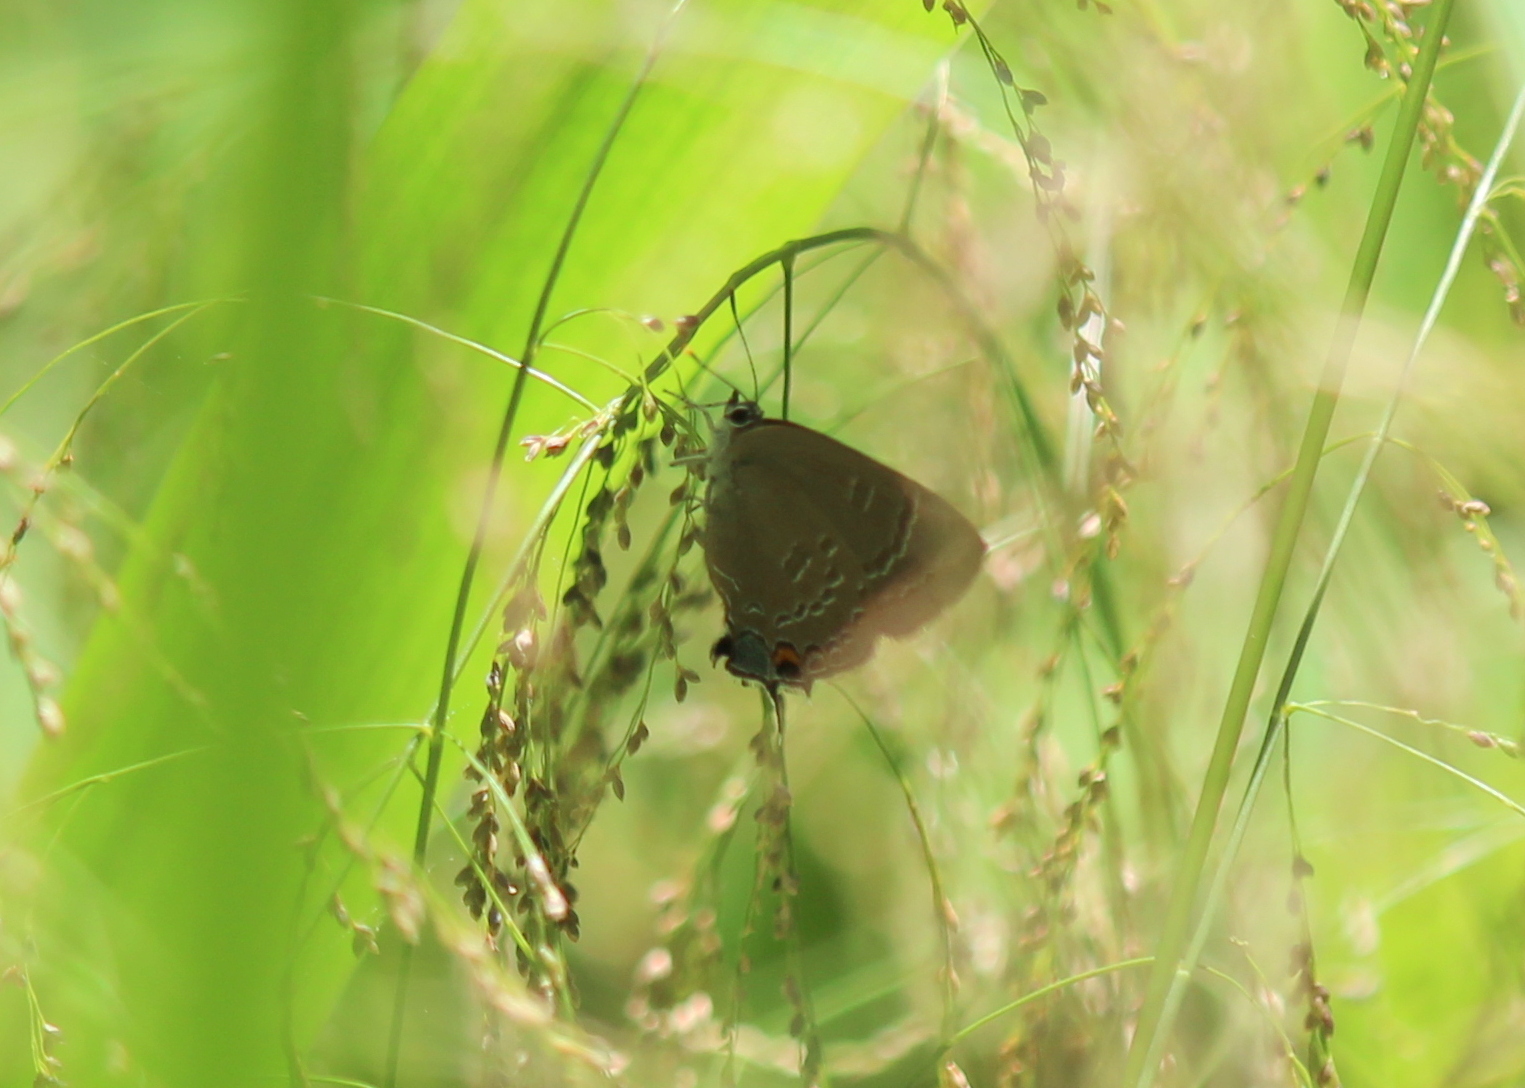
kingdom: Animalia
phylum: Arthropoda
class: Insecta
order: Lepidoptera
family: Lycaenidae
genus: Satyrium
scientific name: Satyrium calanus
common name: Banded hairstreak
